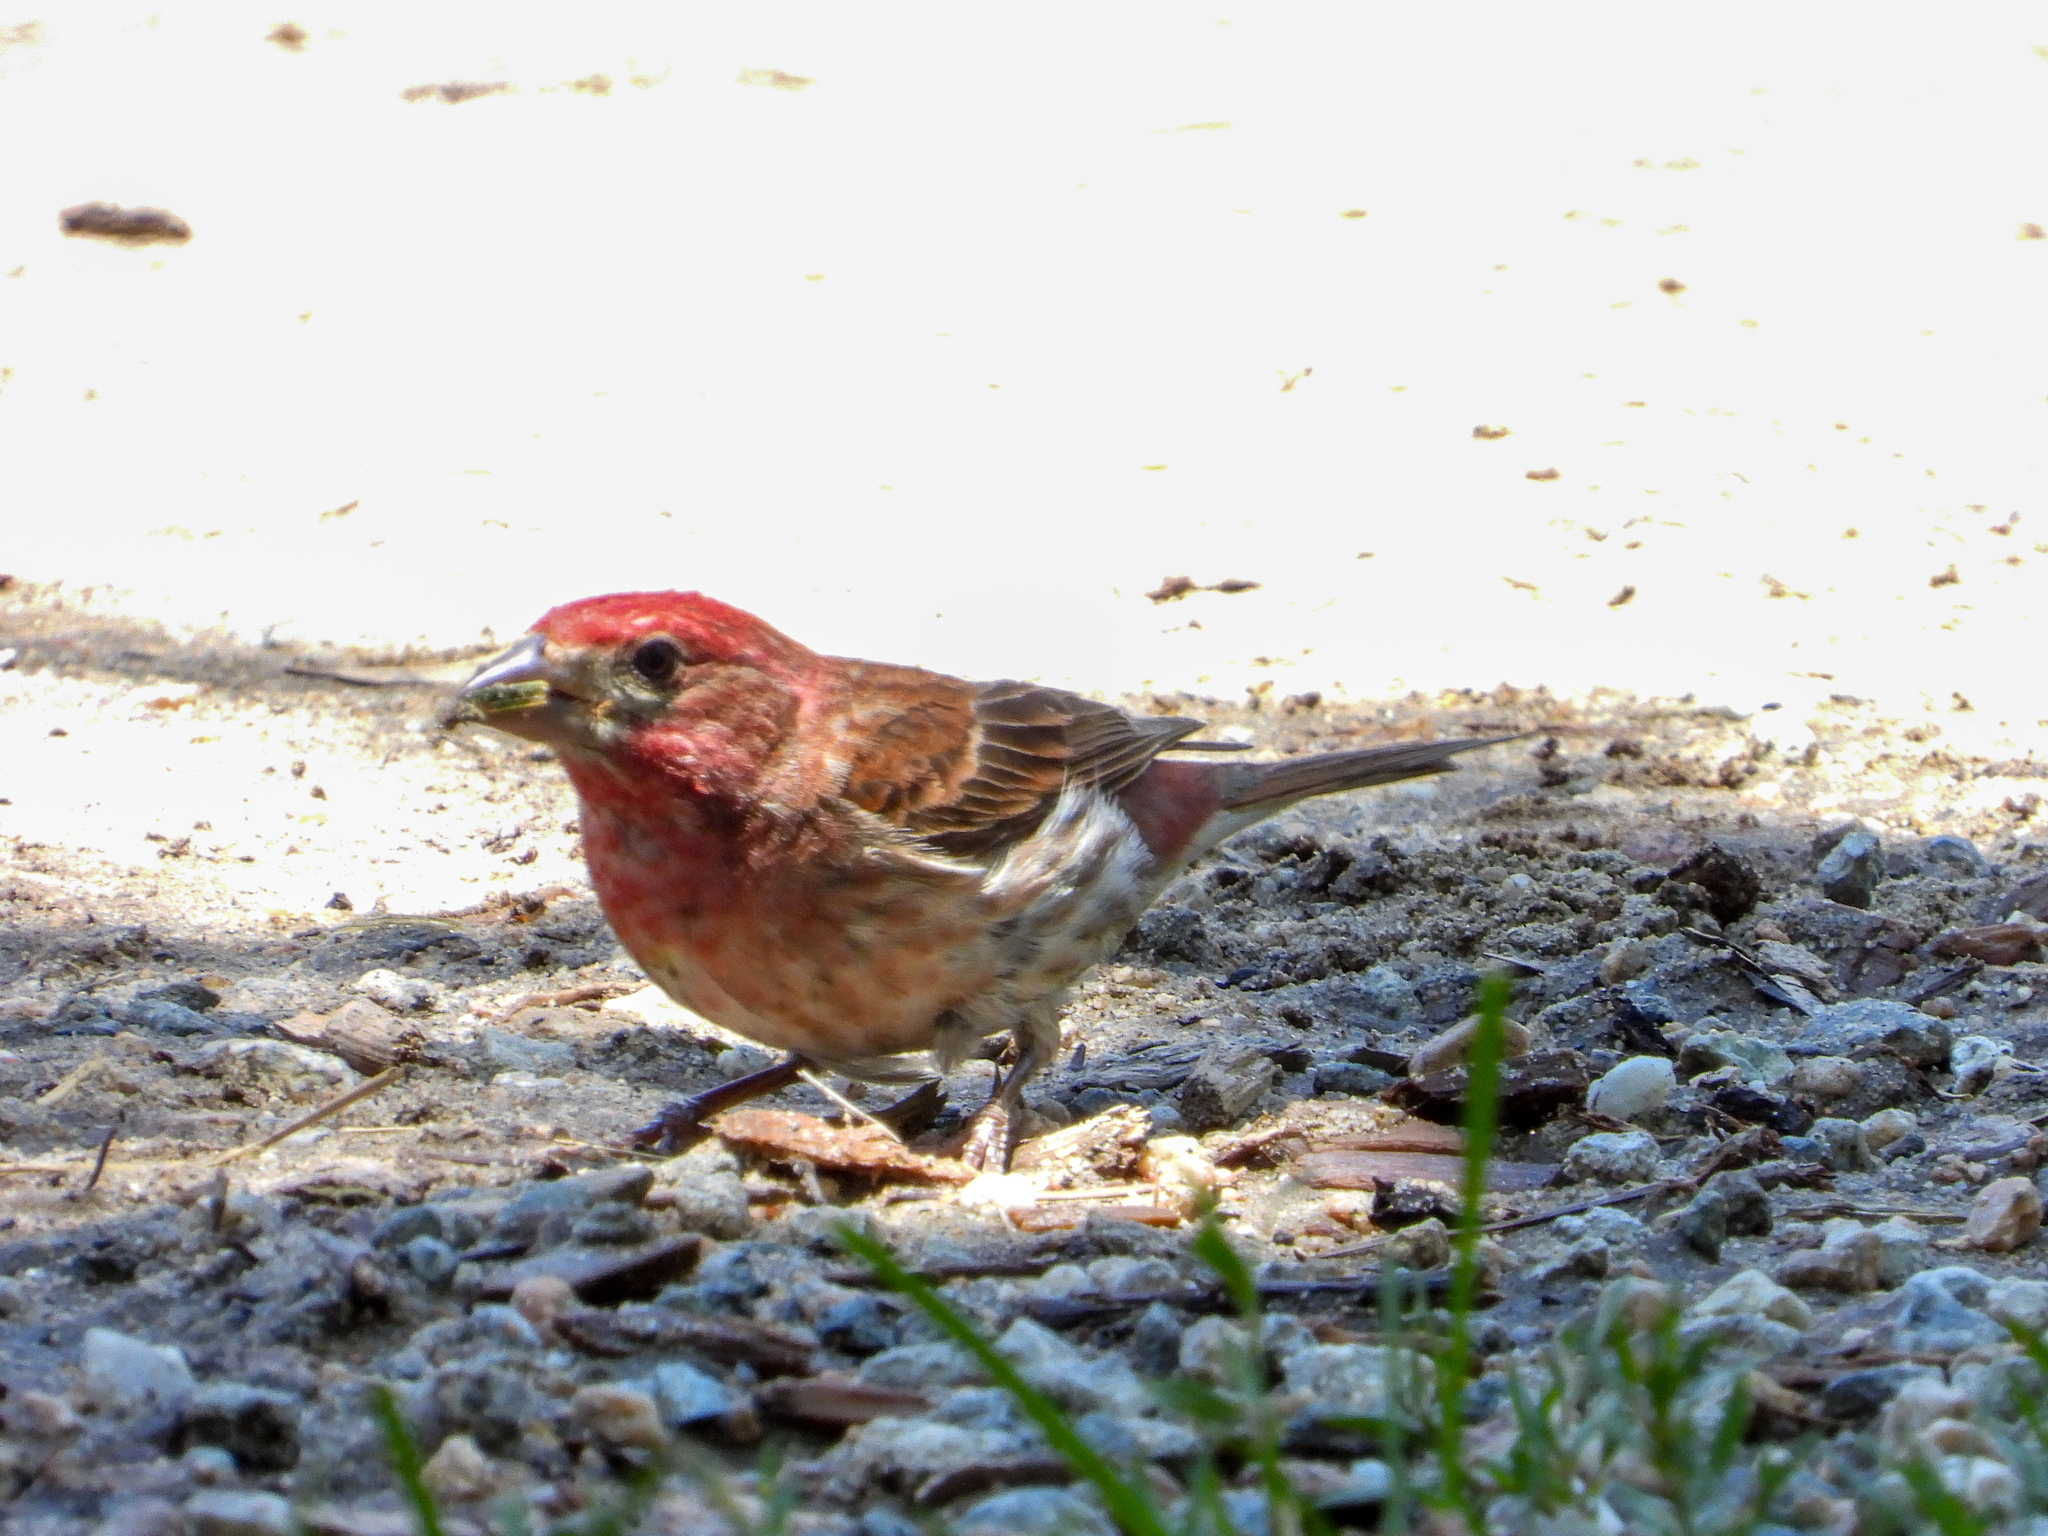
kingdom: Animalia
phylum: Chordata
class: Aves
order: Passeriformes
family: Fringillidae
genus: Haemorhous
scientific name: Haemorhous purpureus
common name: Purple finch
